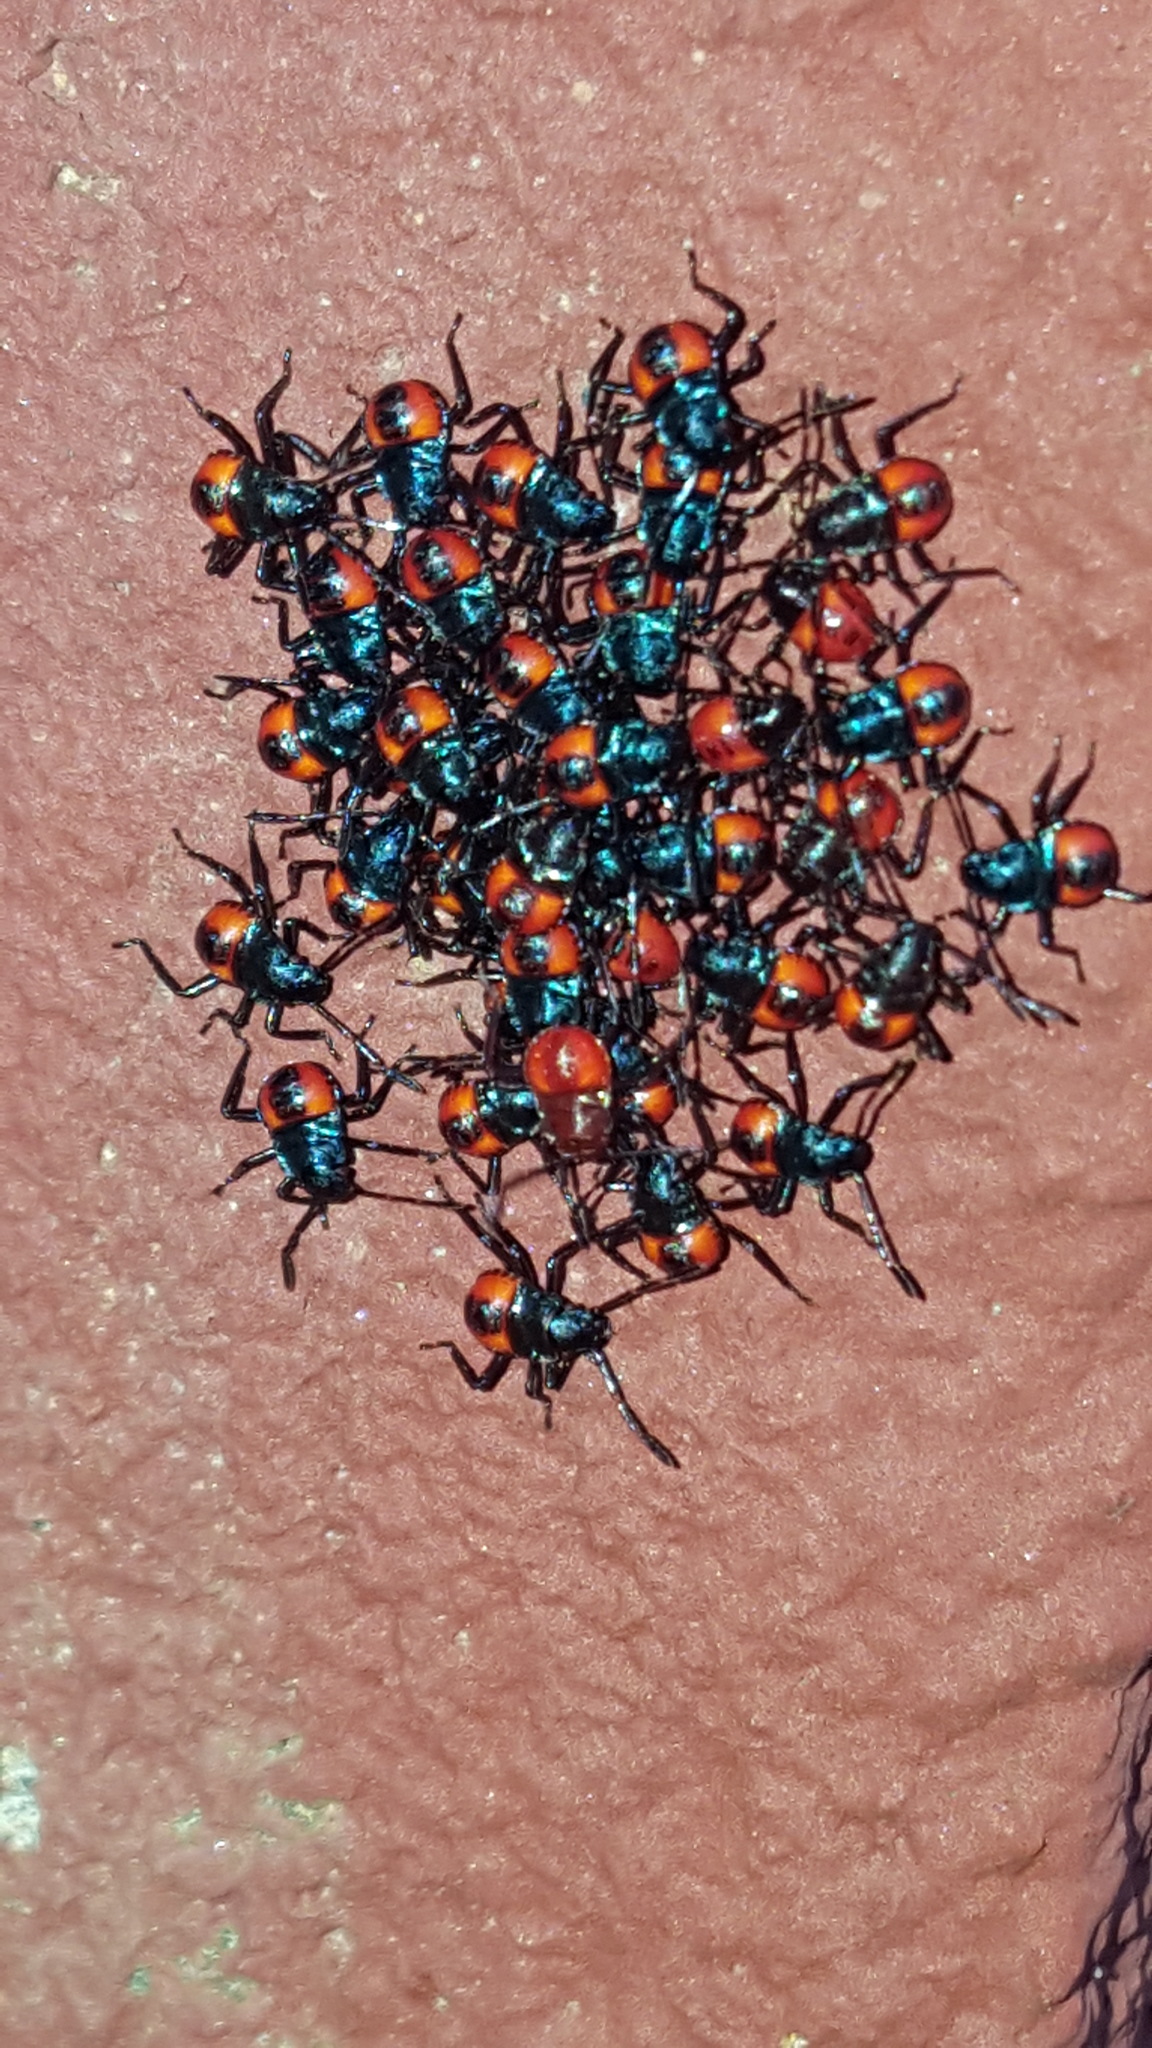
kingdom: Animalia
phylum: Arthropoda
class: Insecta
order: Hemiptera
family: Pentatomidae
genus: Euthyrhynchus
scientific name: Euthyrhynchus floridanus
